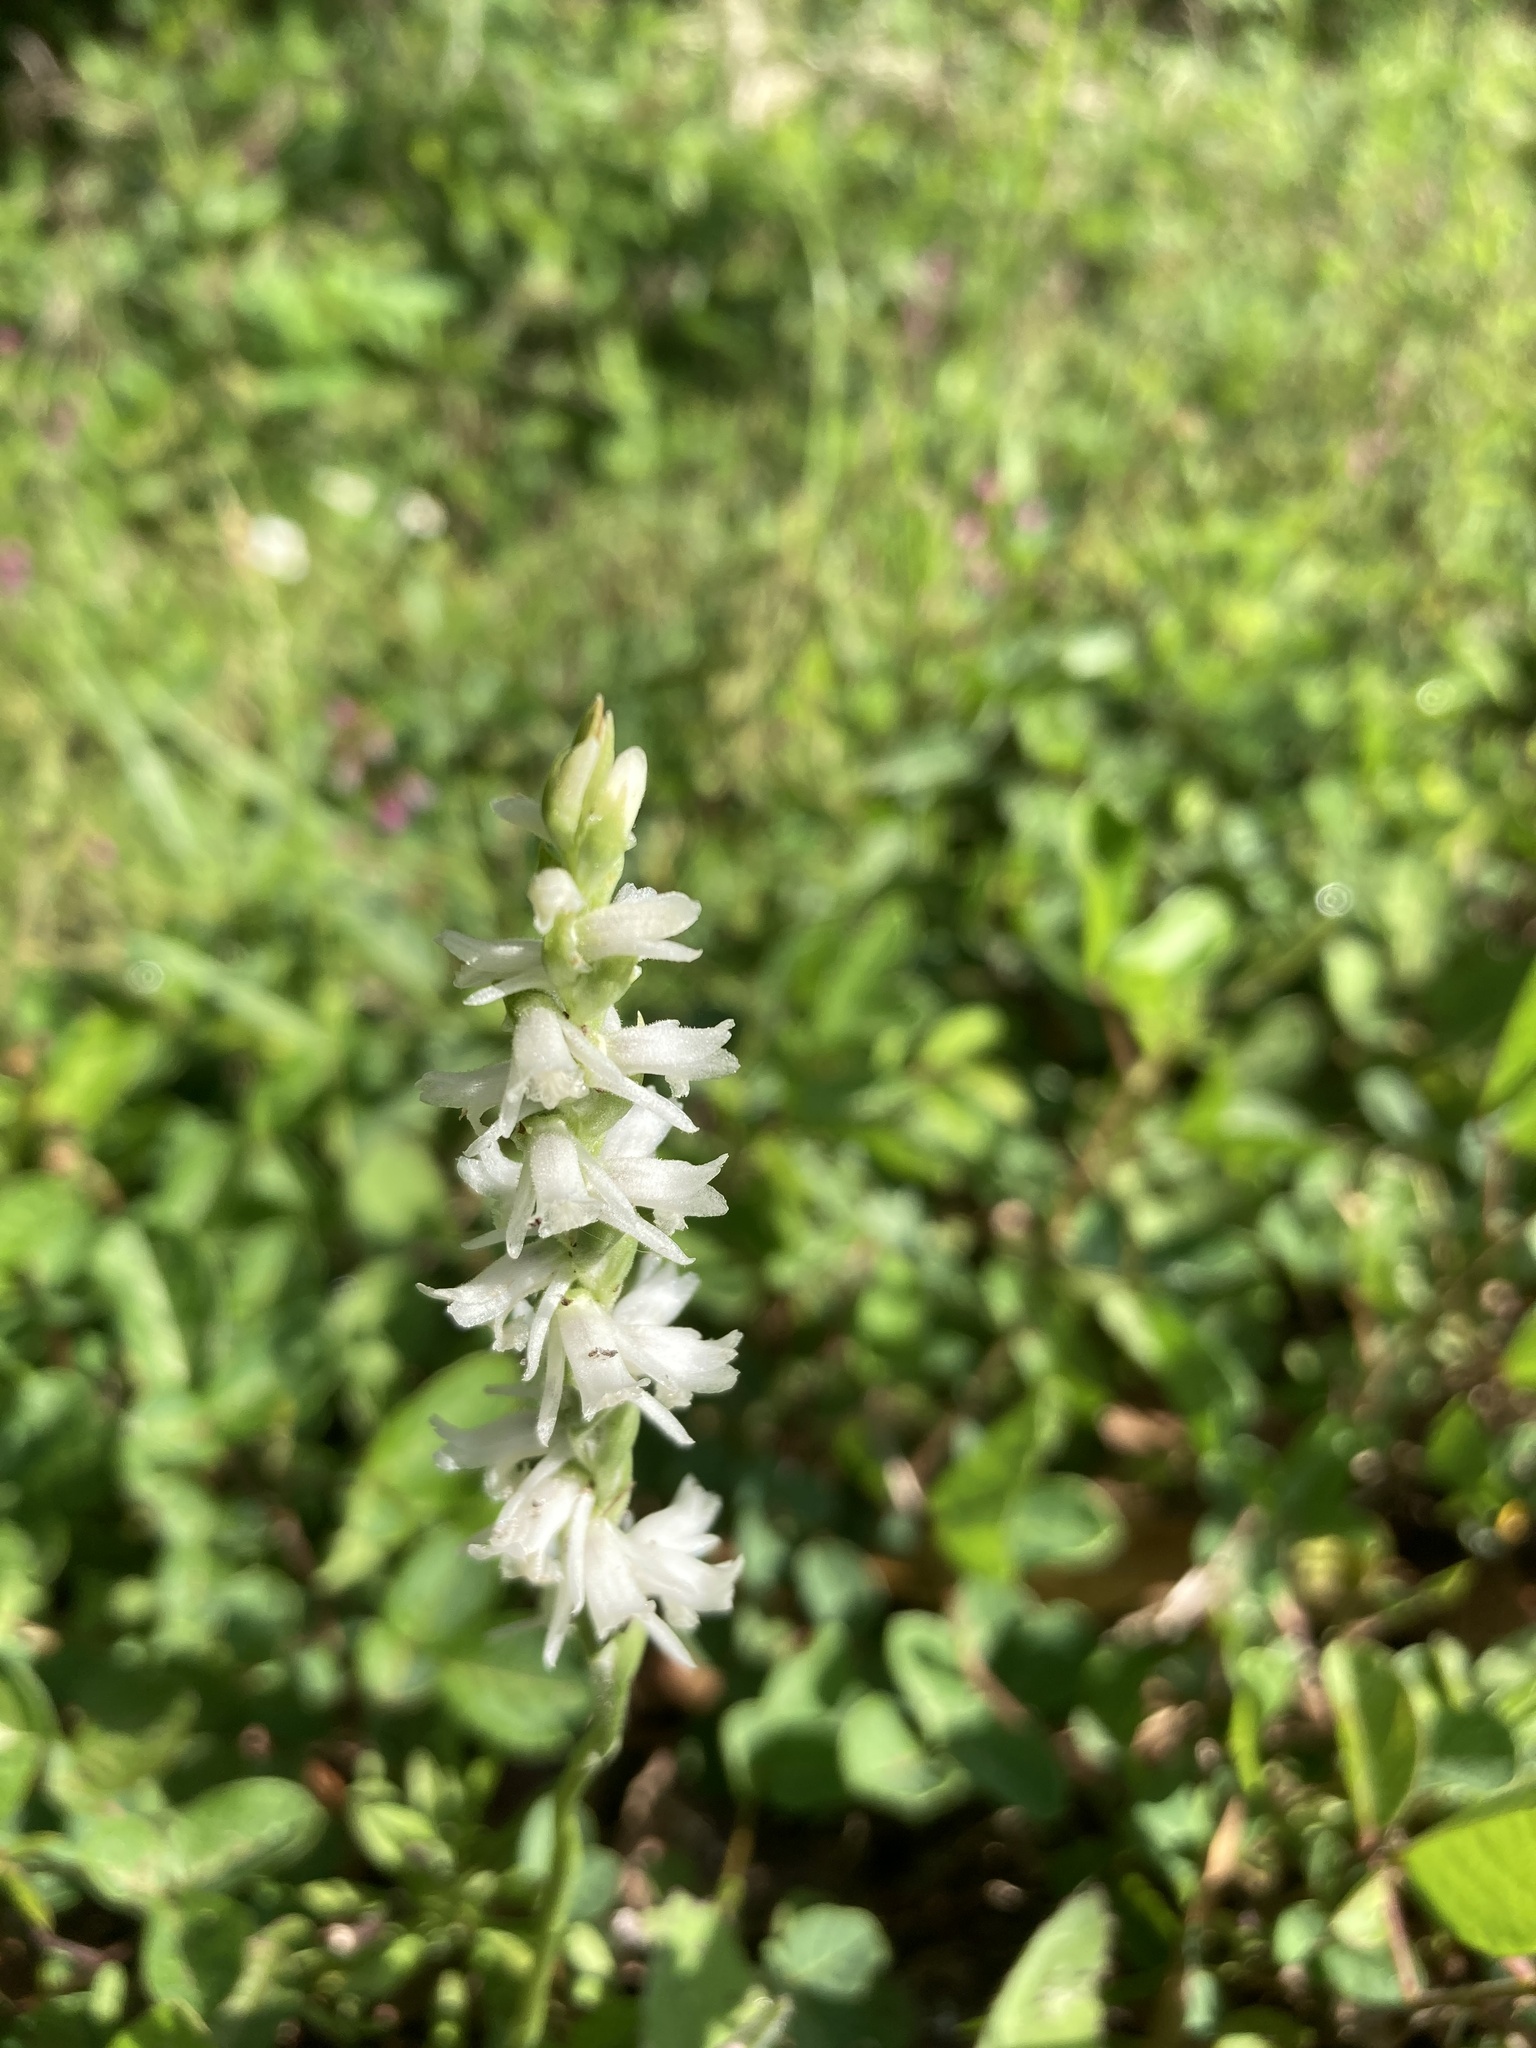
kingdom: Plantae
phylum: Tracheophyta
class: Liliopsida
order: Asparagales
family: Orchidaceae
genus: Spiranthes
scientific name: Spiranthes vernalis
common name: Spring ladies'-tresses
